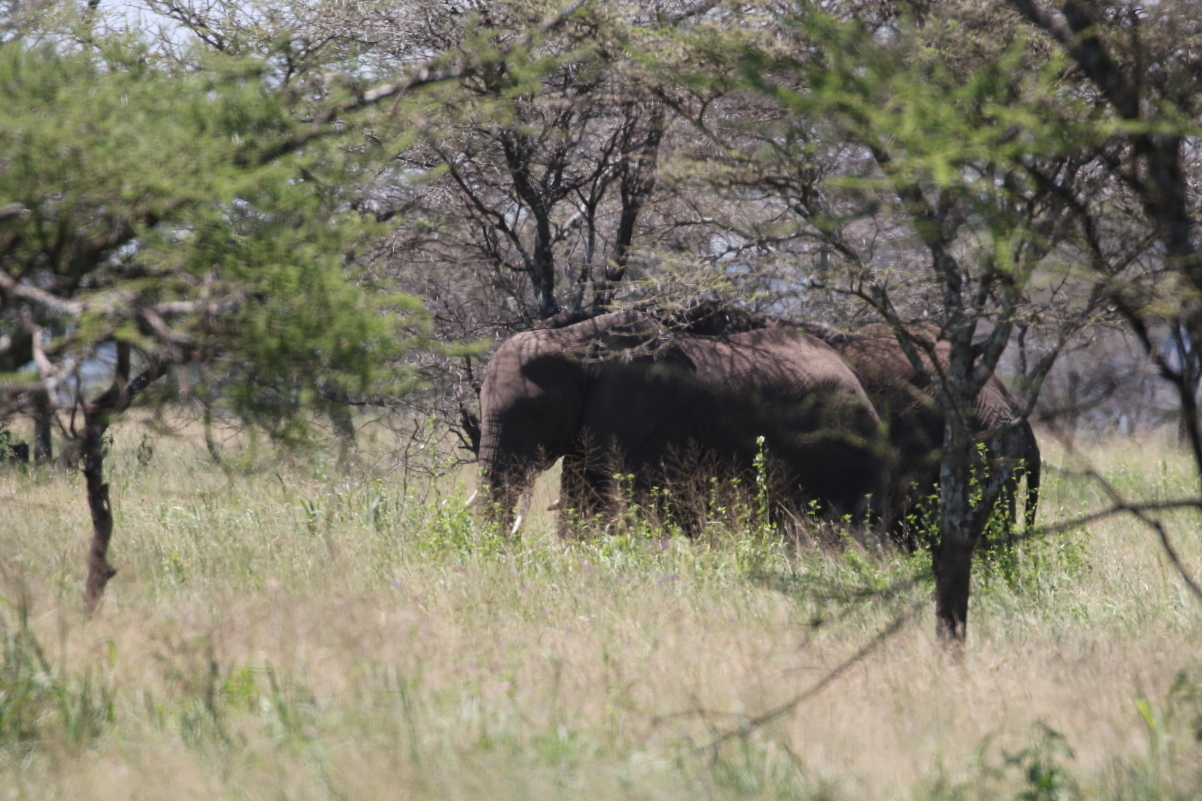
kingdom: Animalia
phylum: Chordata
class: Mammalia
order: Proboscidea
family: Elephantidae
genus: Loxodonta
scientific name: Loxodonta africana
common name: African elephant
